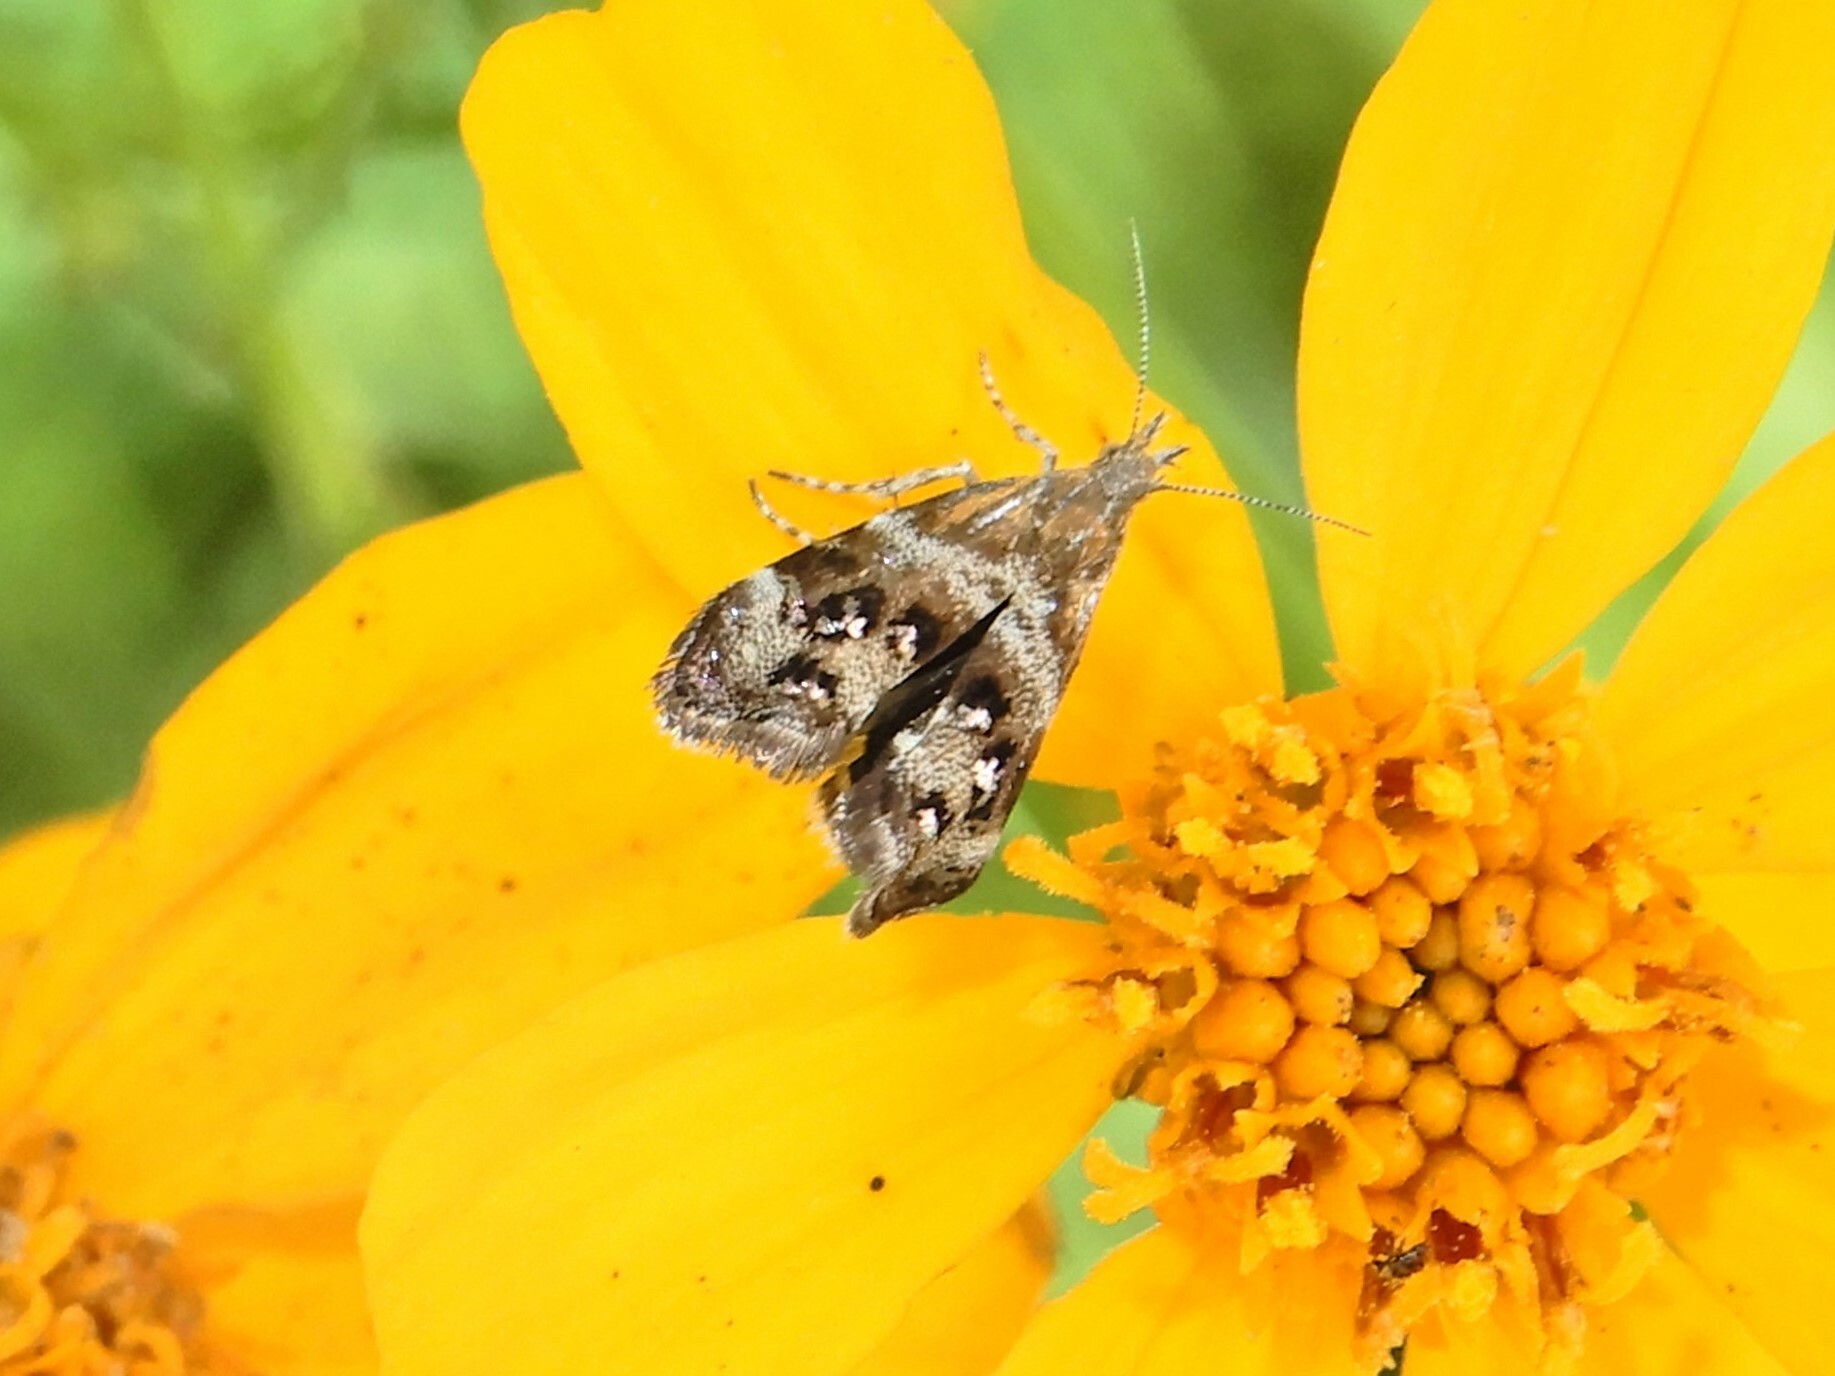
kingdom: Animalia
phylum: Arthropoda
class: Insecta
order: Lepidoptera
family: Choreutidae
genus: Tebenna
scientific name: Tebenna micalis
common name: Vagrant twitcher
